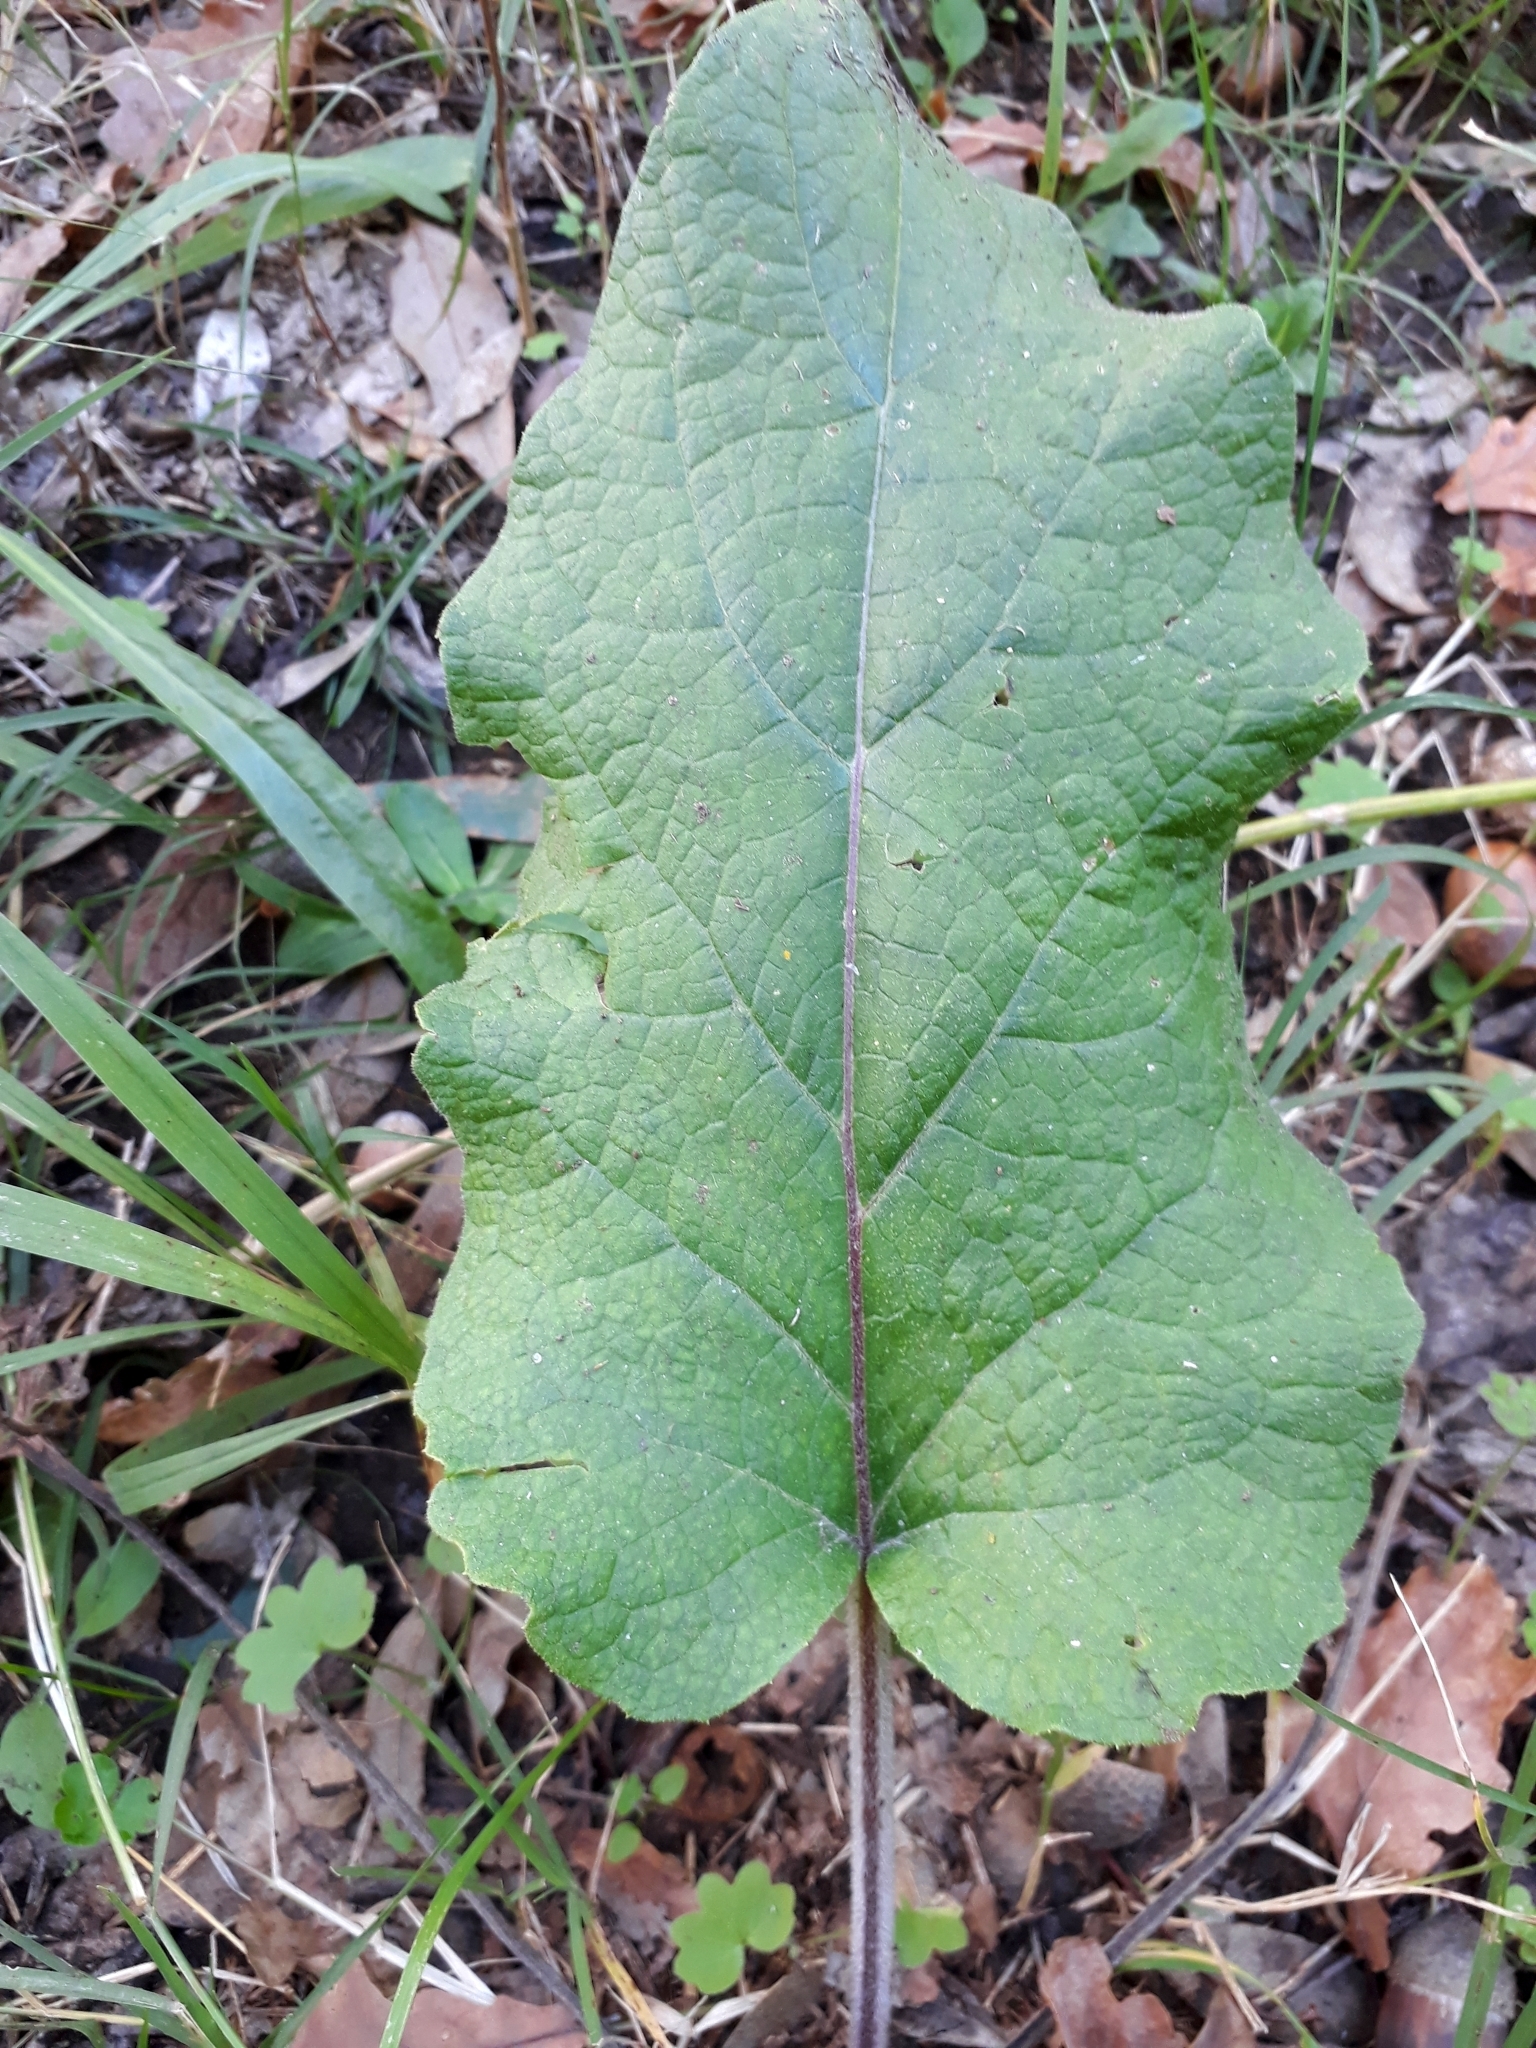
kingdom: Plantae
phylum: Tracheophyta
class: Magnoliopsida
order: Asterales
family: Asteraceae
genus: Arctium
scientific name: Arctium minus
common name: Lesser burdock
